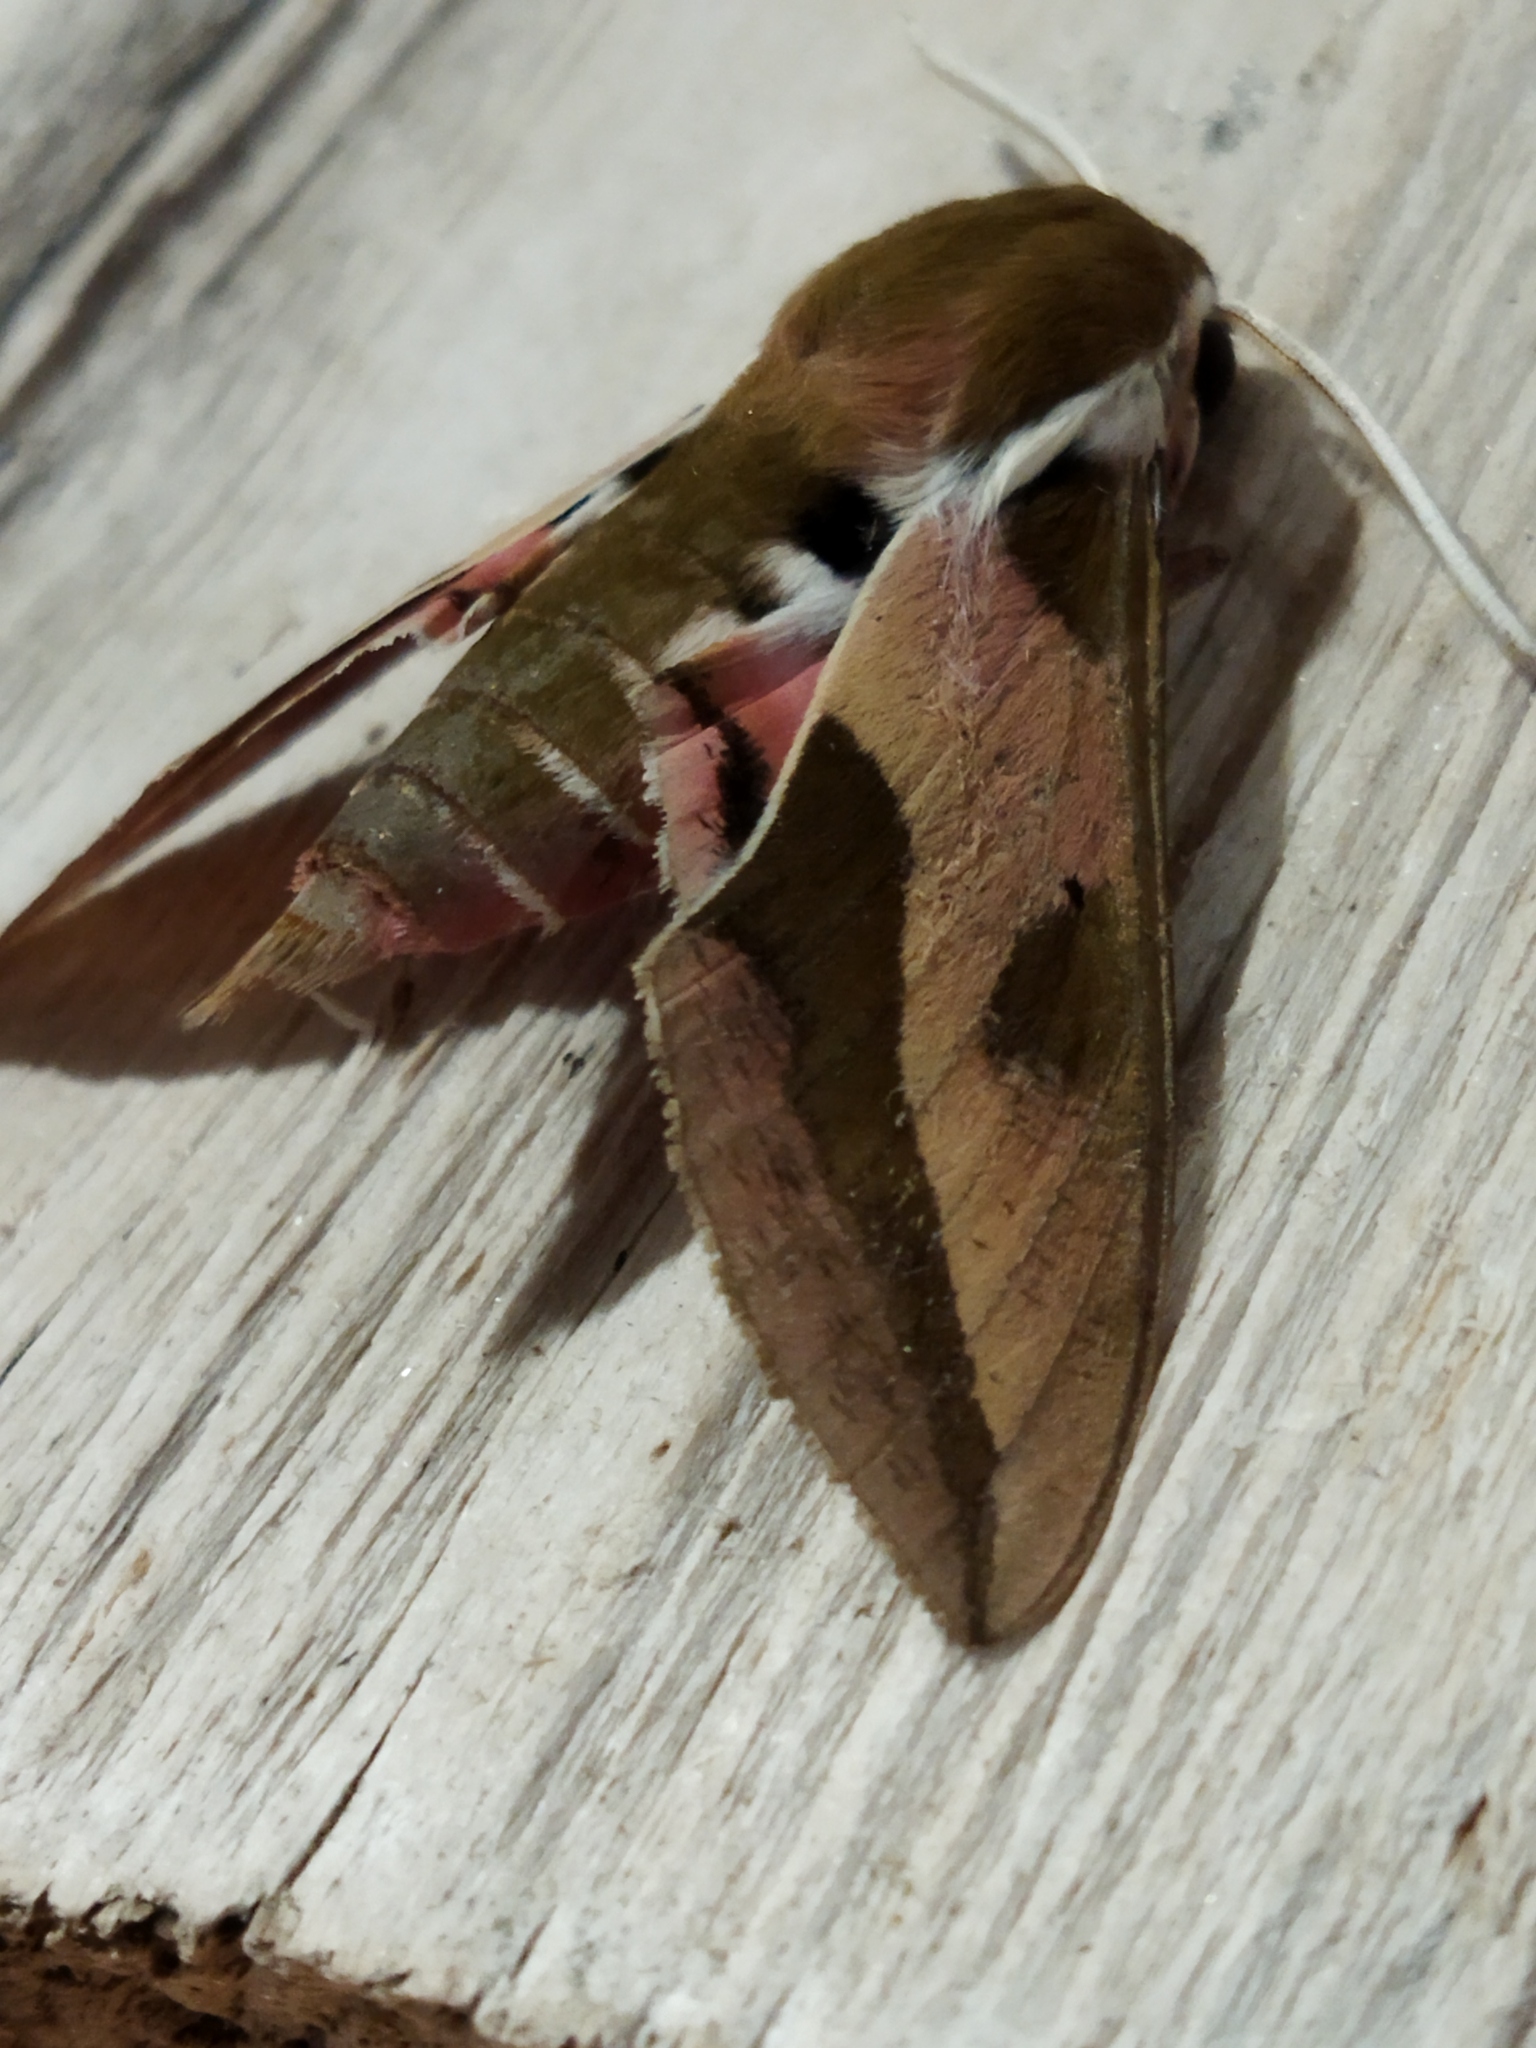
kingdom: Animalia
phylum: Arthropoda
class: Insecta
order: Lepidoptera
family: Sphingidae
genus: Hyles
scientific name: Hyles euphorbiae
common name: Spurge hawk-moth
